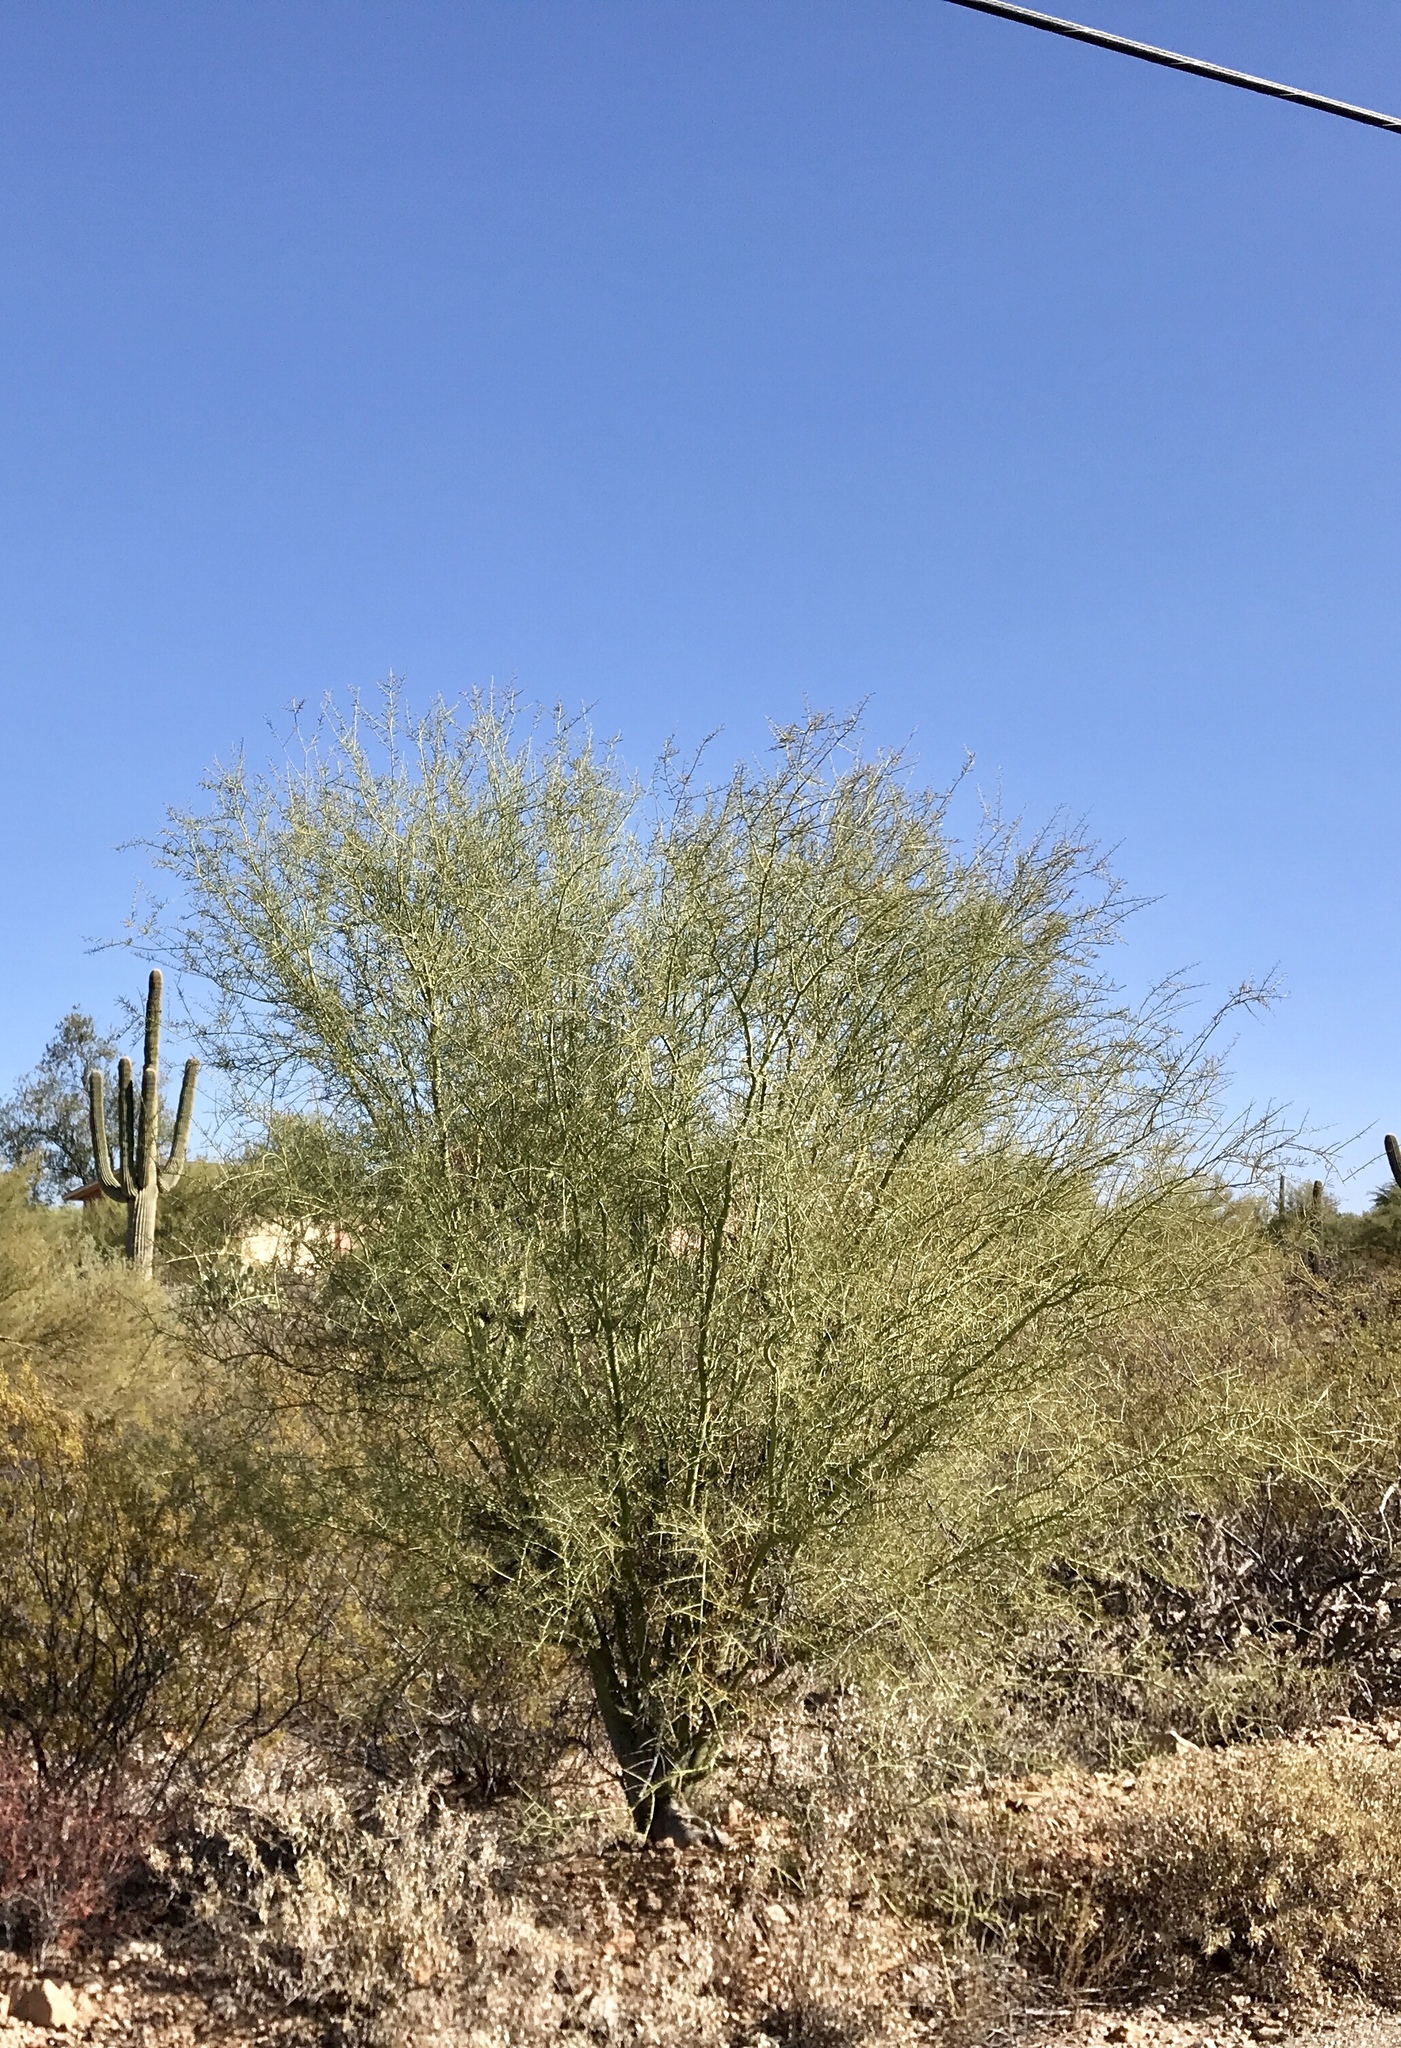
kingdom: Plantae
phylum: Tracheophyta
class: Magnoliopsida
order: Fabales
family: Fabaceae
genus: Parkinsonia
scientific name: Parkinsonia florida
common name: Blue paloverde
